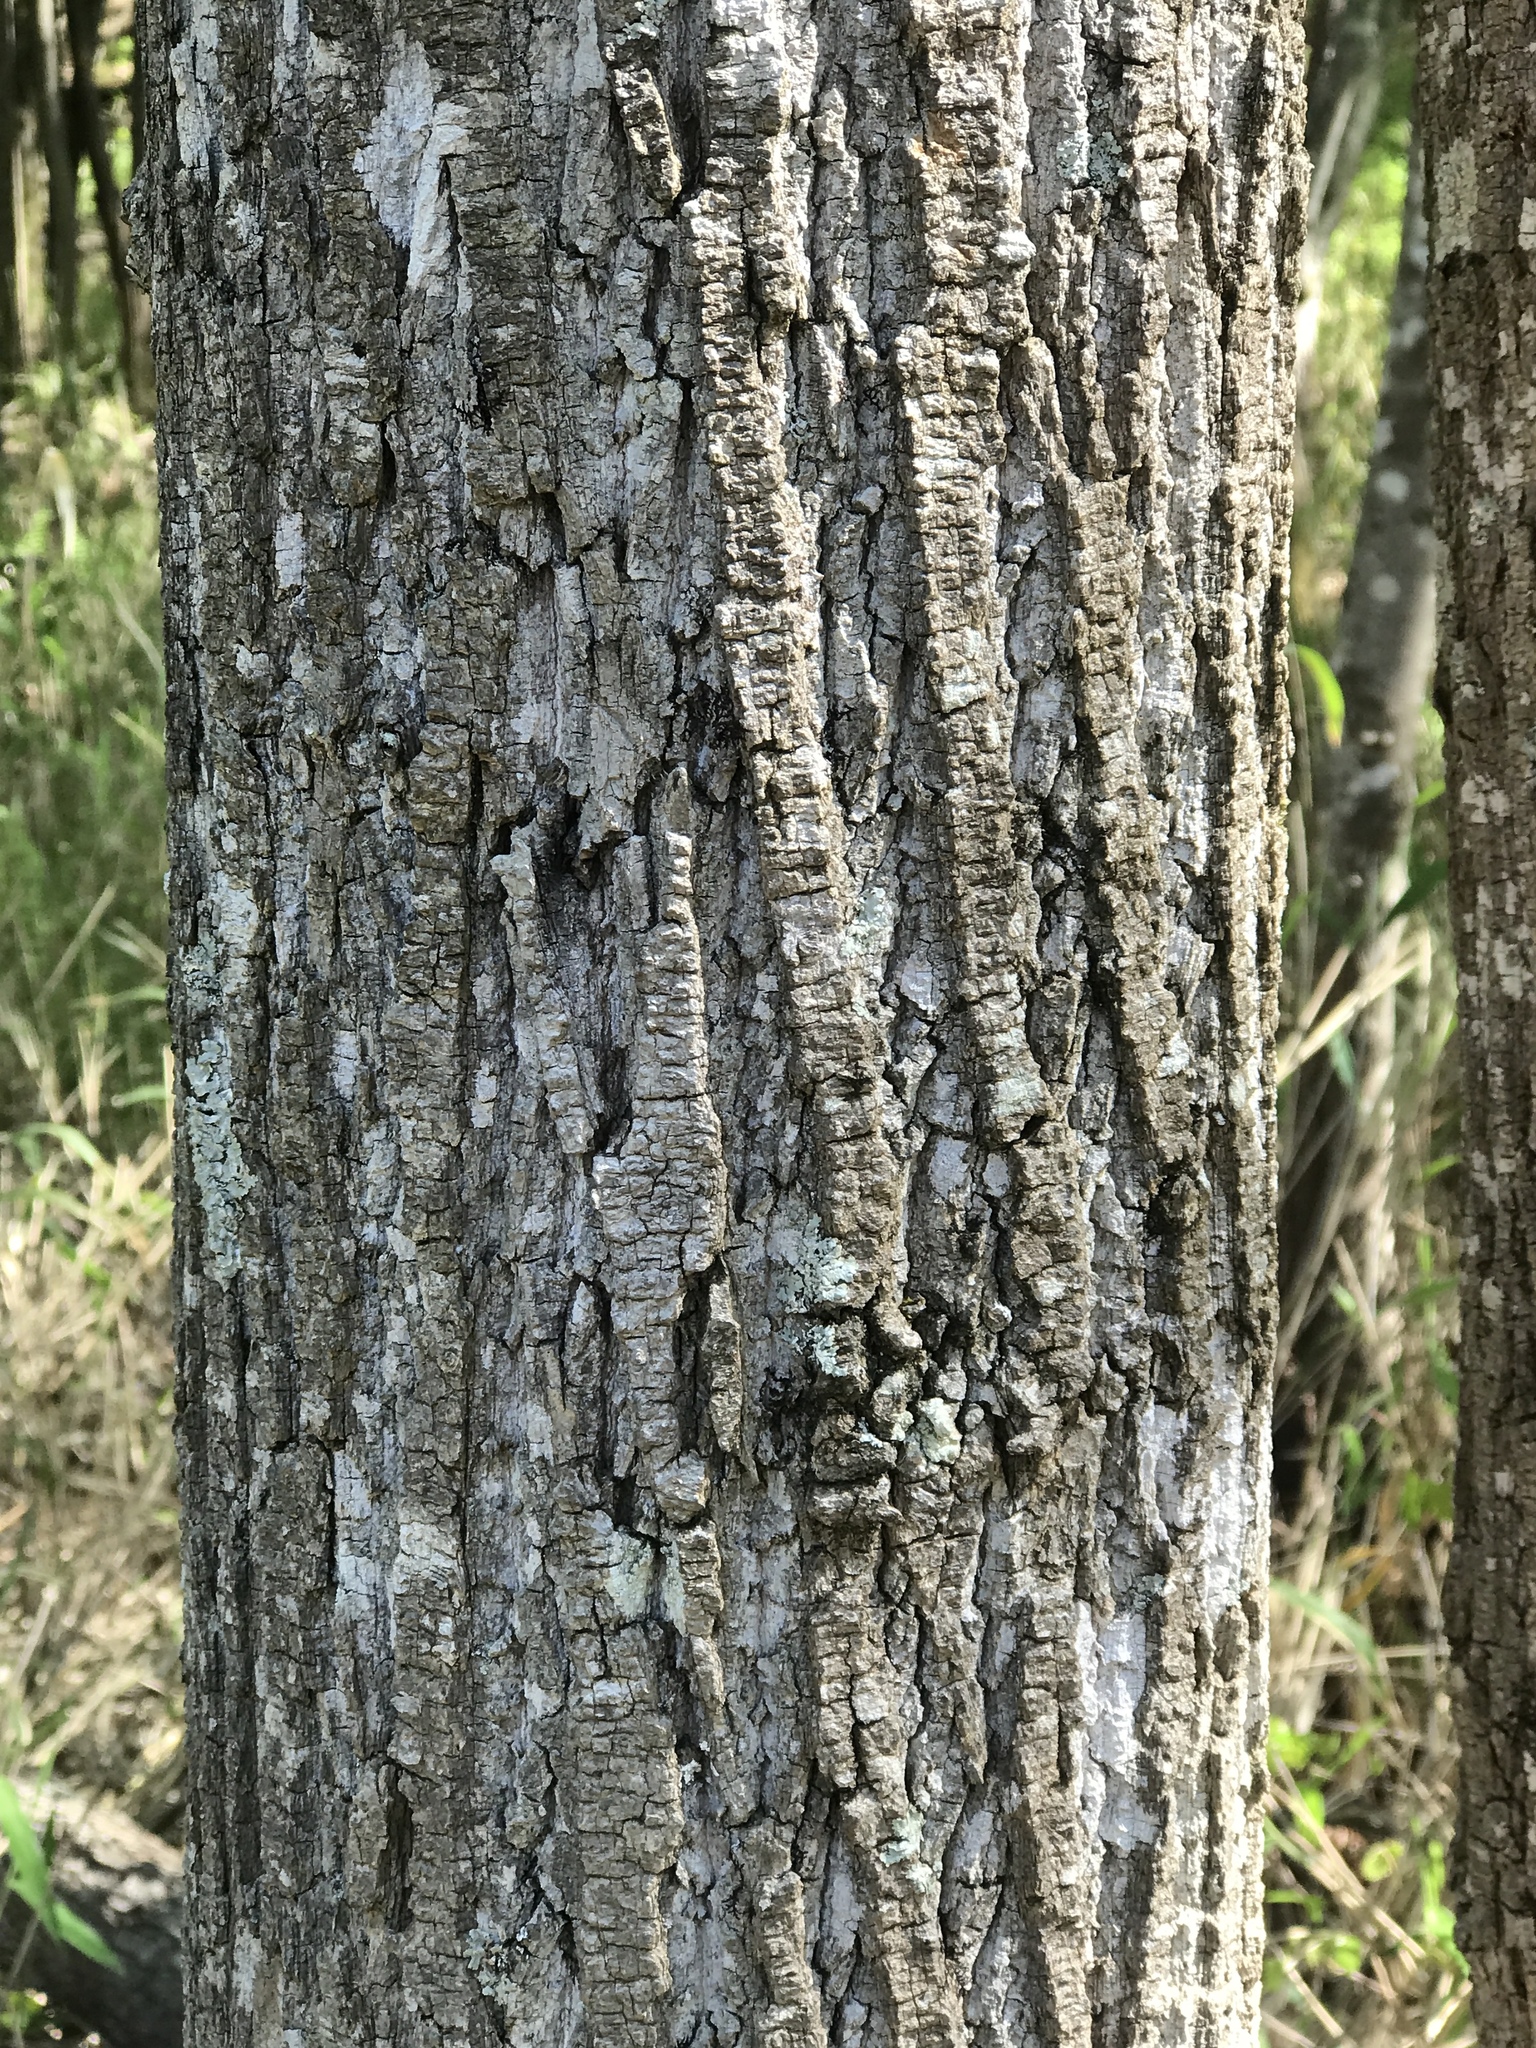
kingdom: Plantae
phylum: Tracheophyta
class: Magnoliopsida
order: Magnoliales
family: Magnoliaceae
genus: Liriodendron
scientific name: Liriodendron tulipifera
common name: Tulip tree
